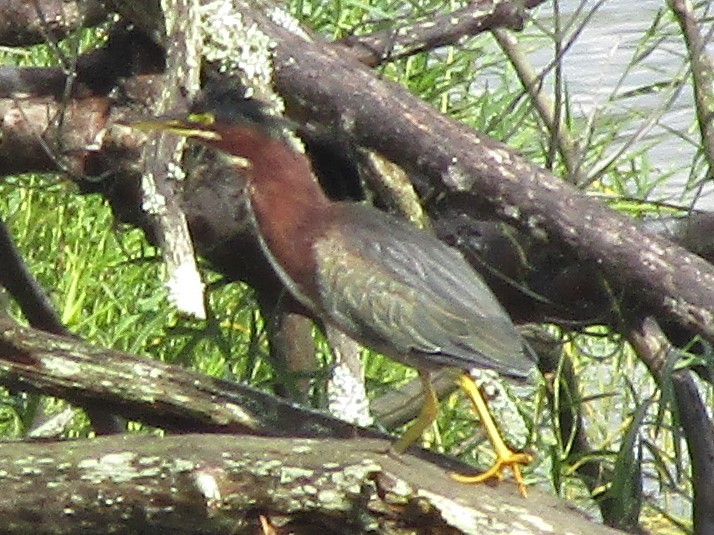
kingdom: Animalia
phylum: Chordata
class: Aves
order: Pelecaniformes
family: Ardeidae
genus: Butorides
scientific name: Butorides virescens
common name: Green heron
